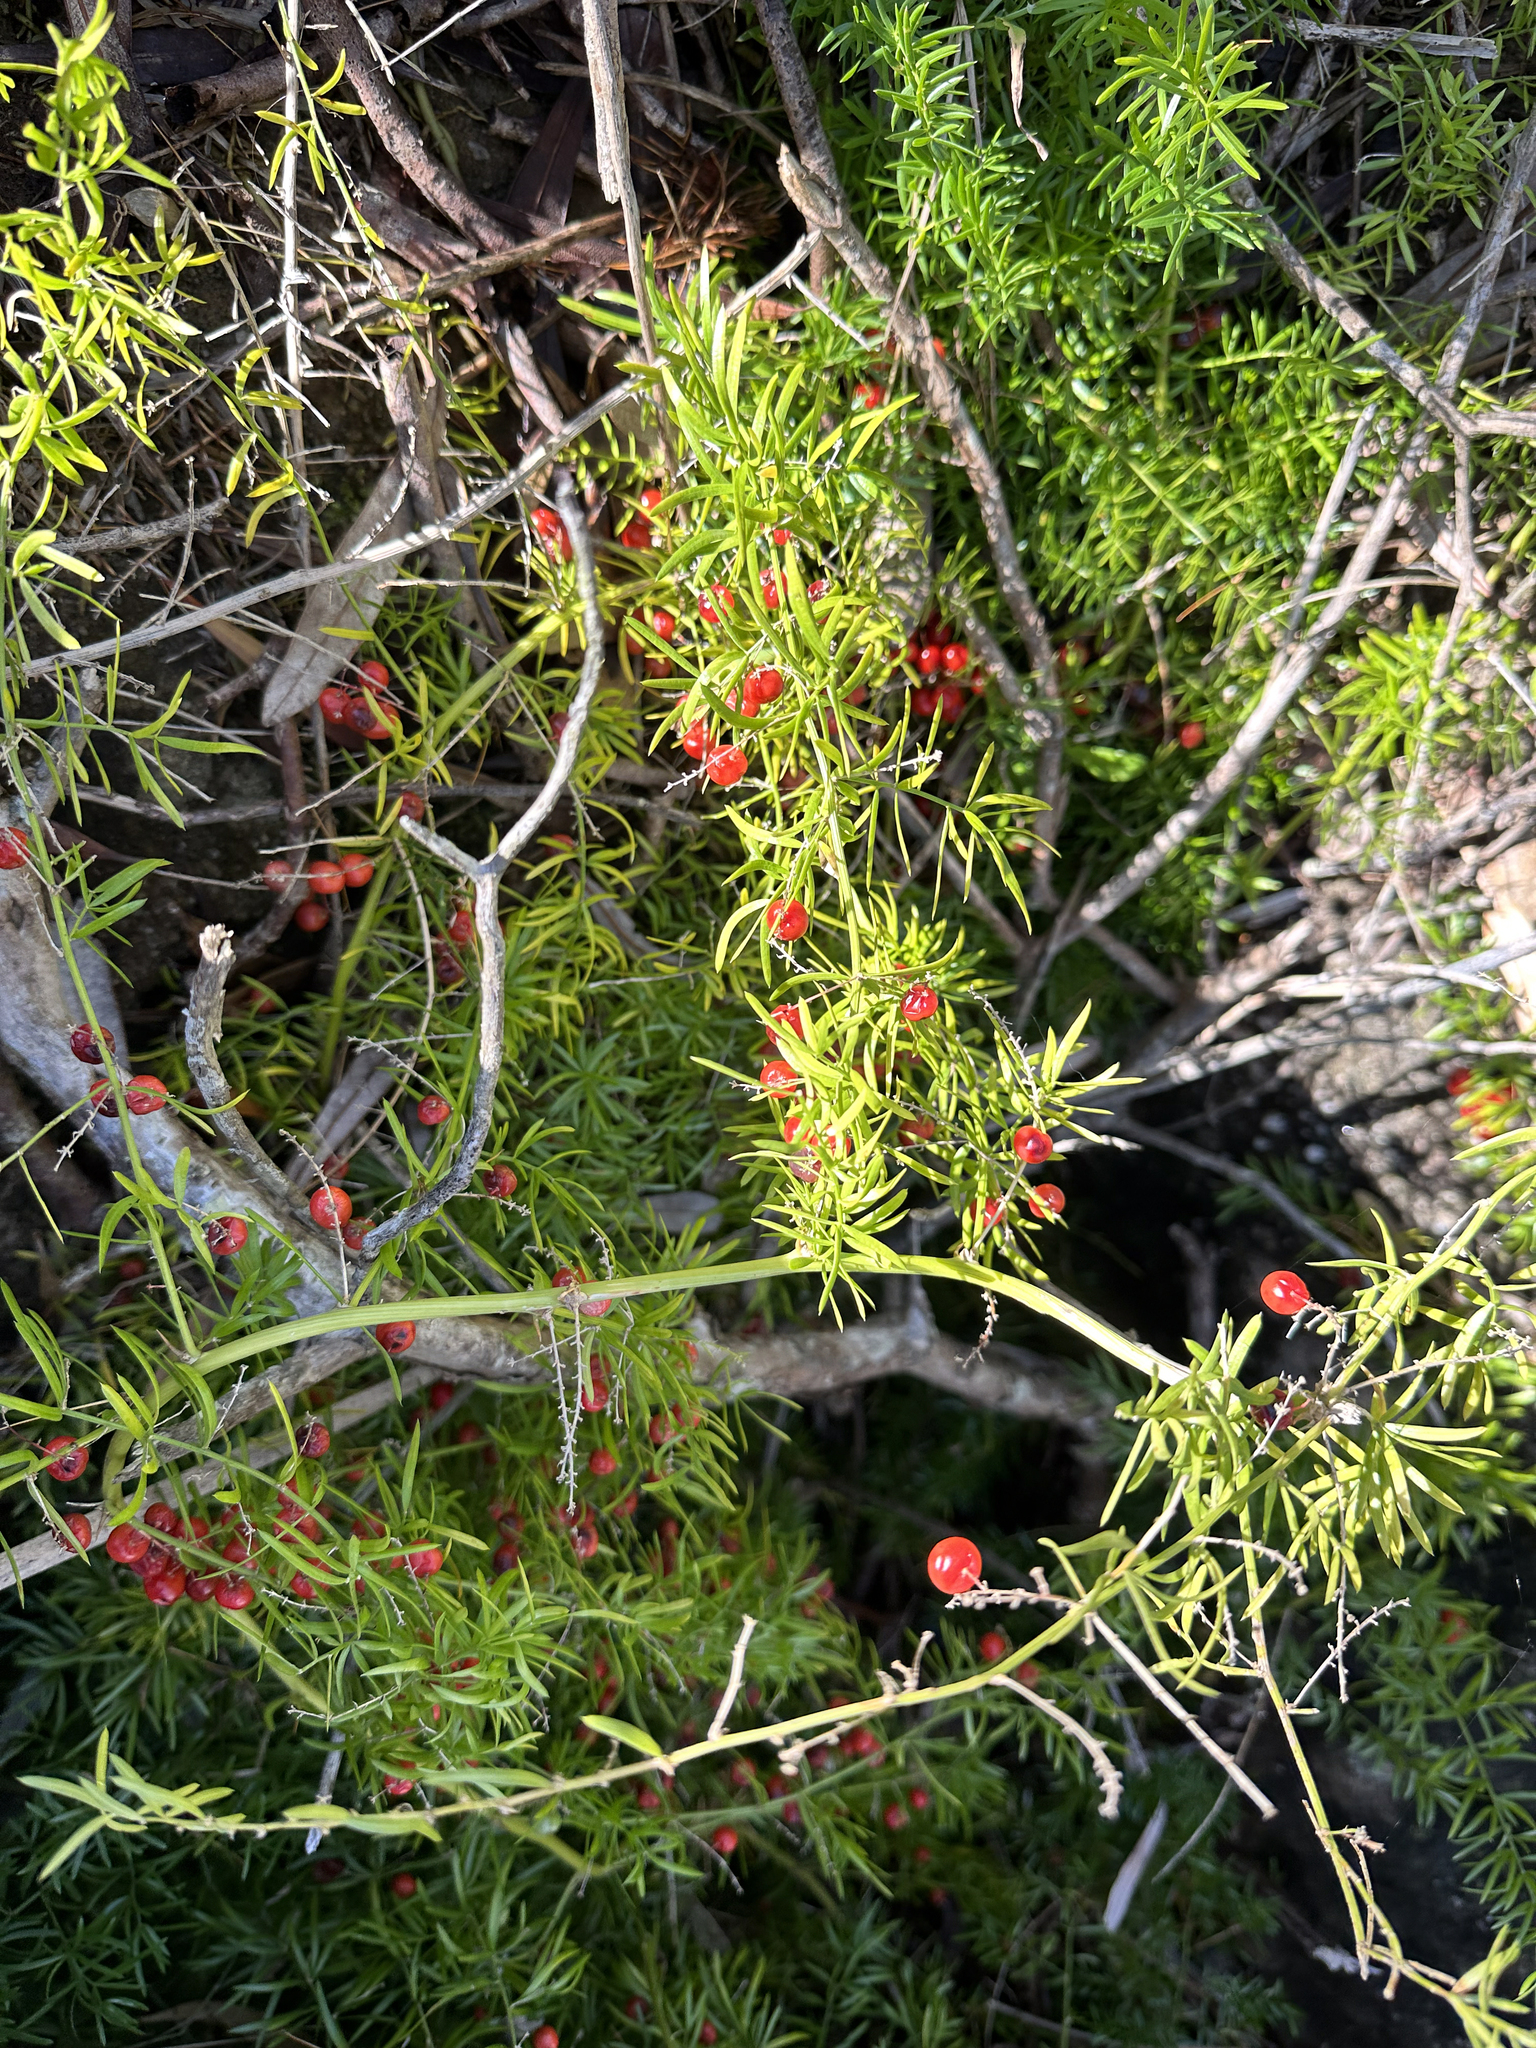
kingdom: Plantae
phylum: Tracheophyta
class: Liliopsida
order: Asparagales
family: Asparagaceae
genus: Asparagus
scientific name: Asparagus aethiopicus
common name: Sprenger's asparagus fern
